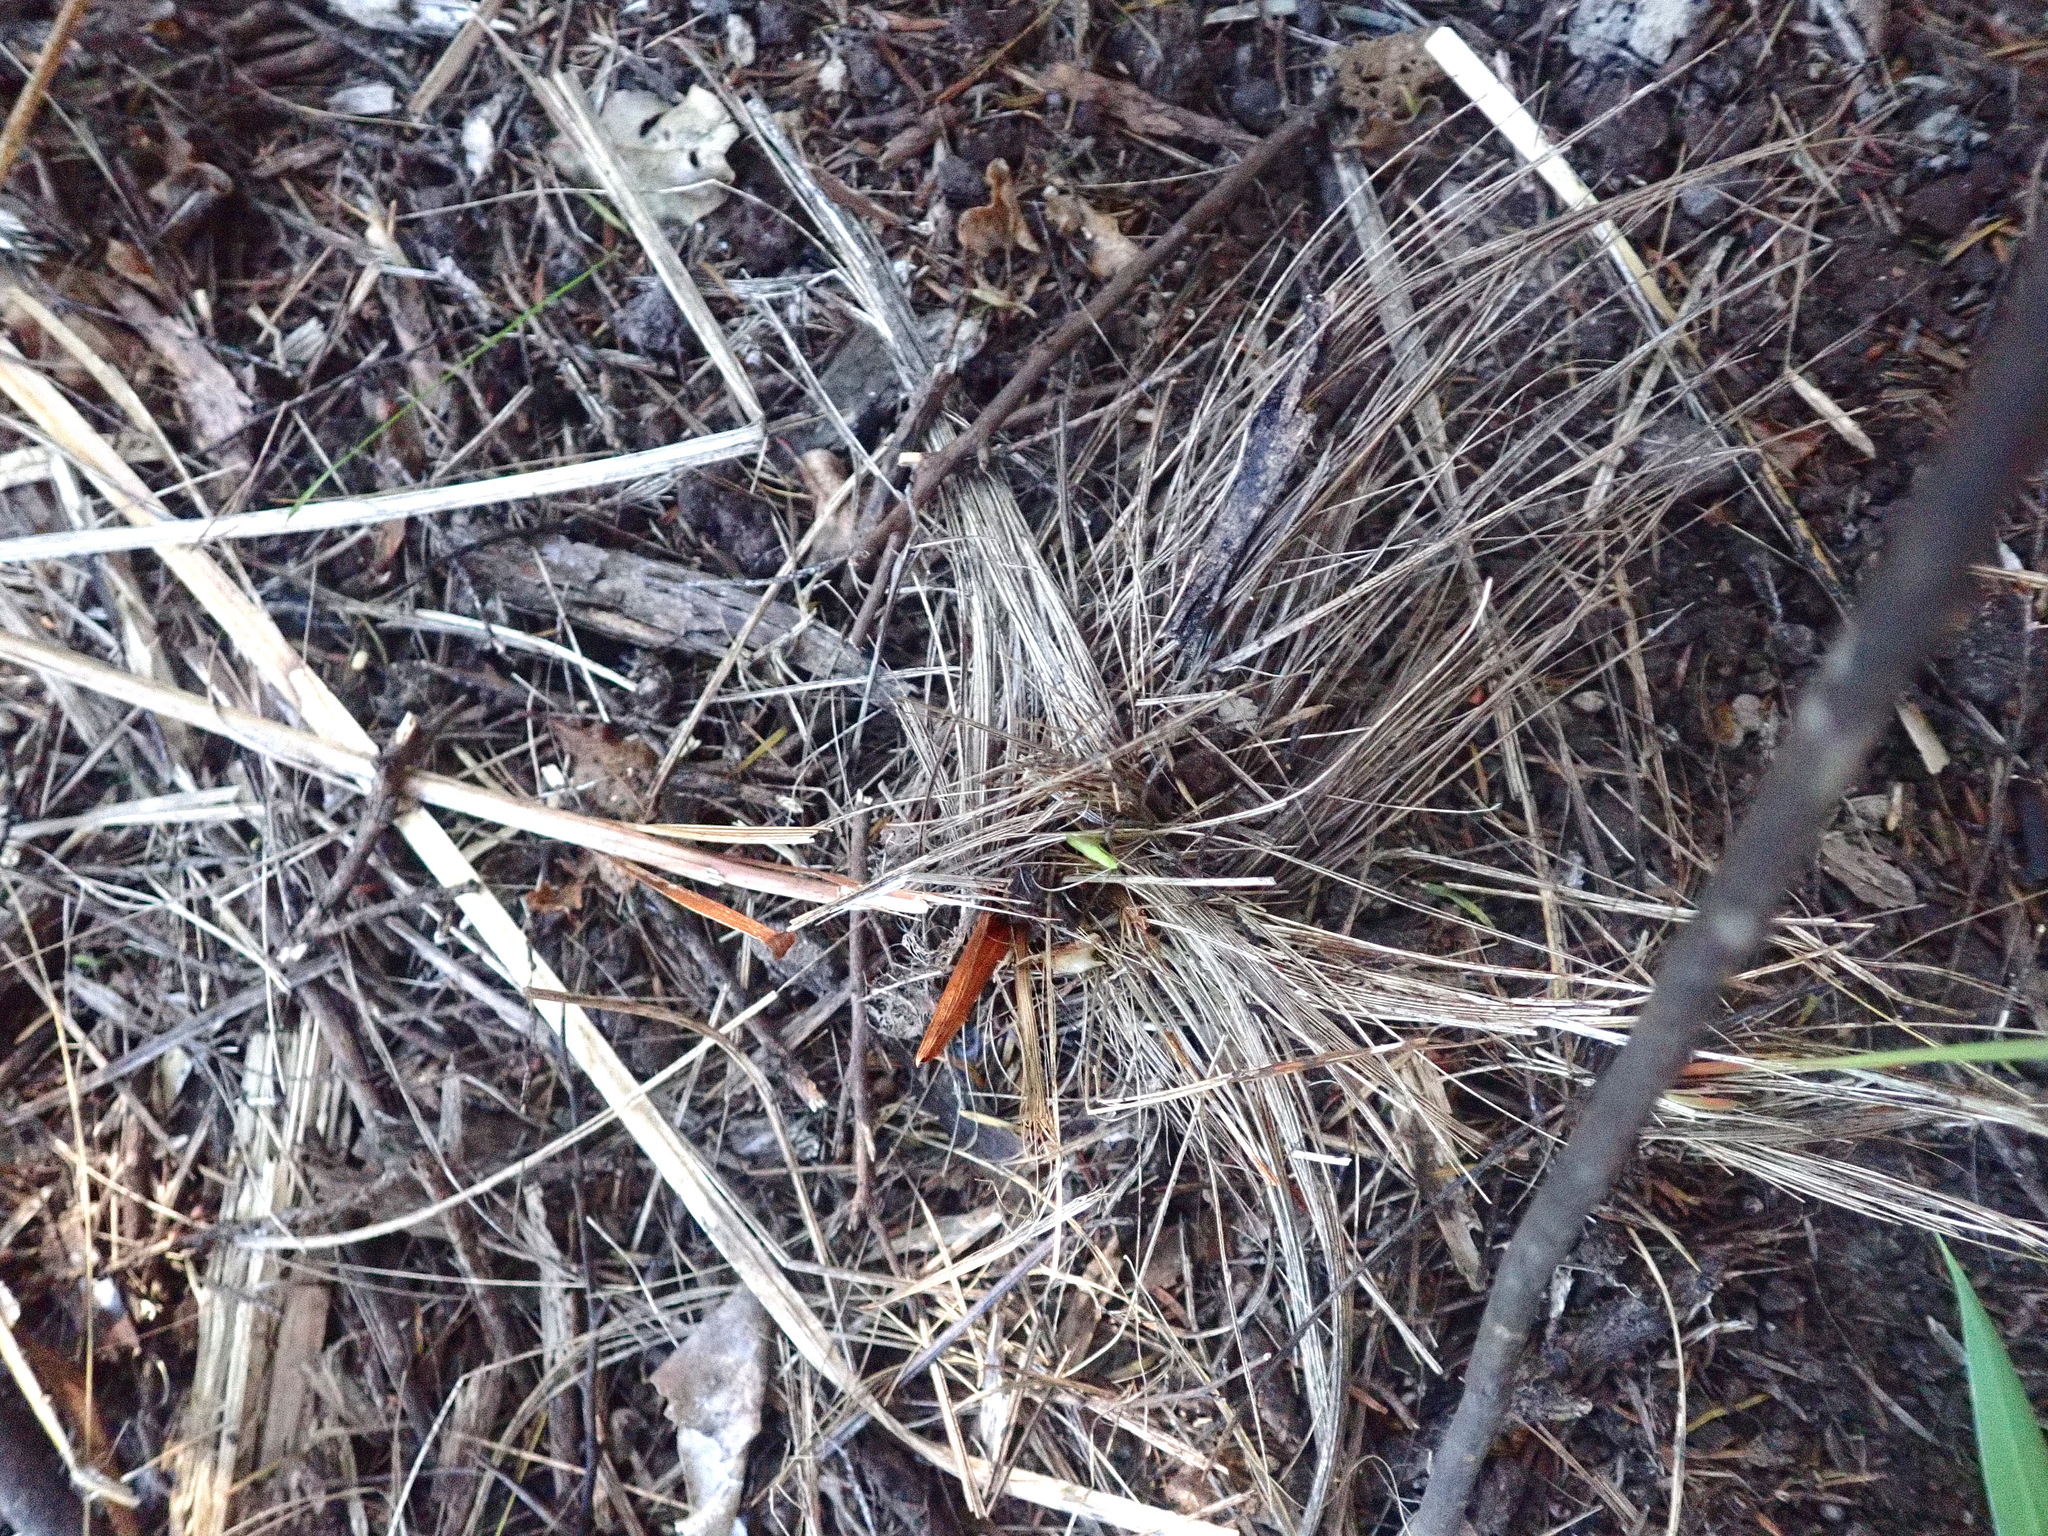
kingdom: Plantae
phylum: Tracheophyta
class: Liliopsida
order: Asparagales
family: Iridaceae
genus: Watsonia
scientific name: Watsonia meriana
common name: Bulbil bugle-lily
